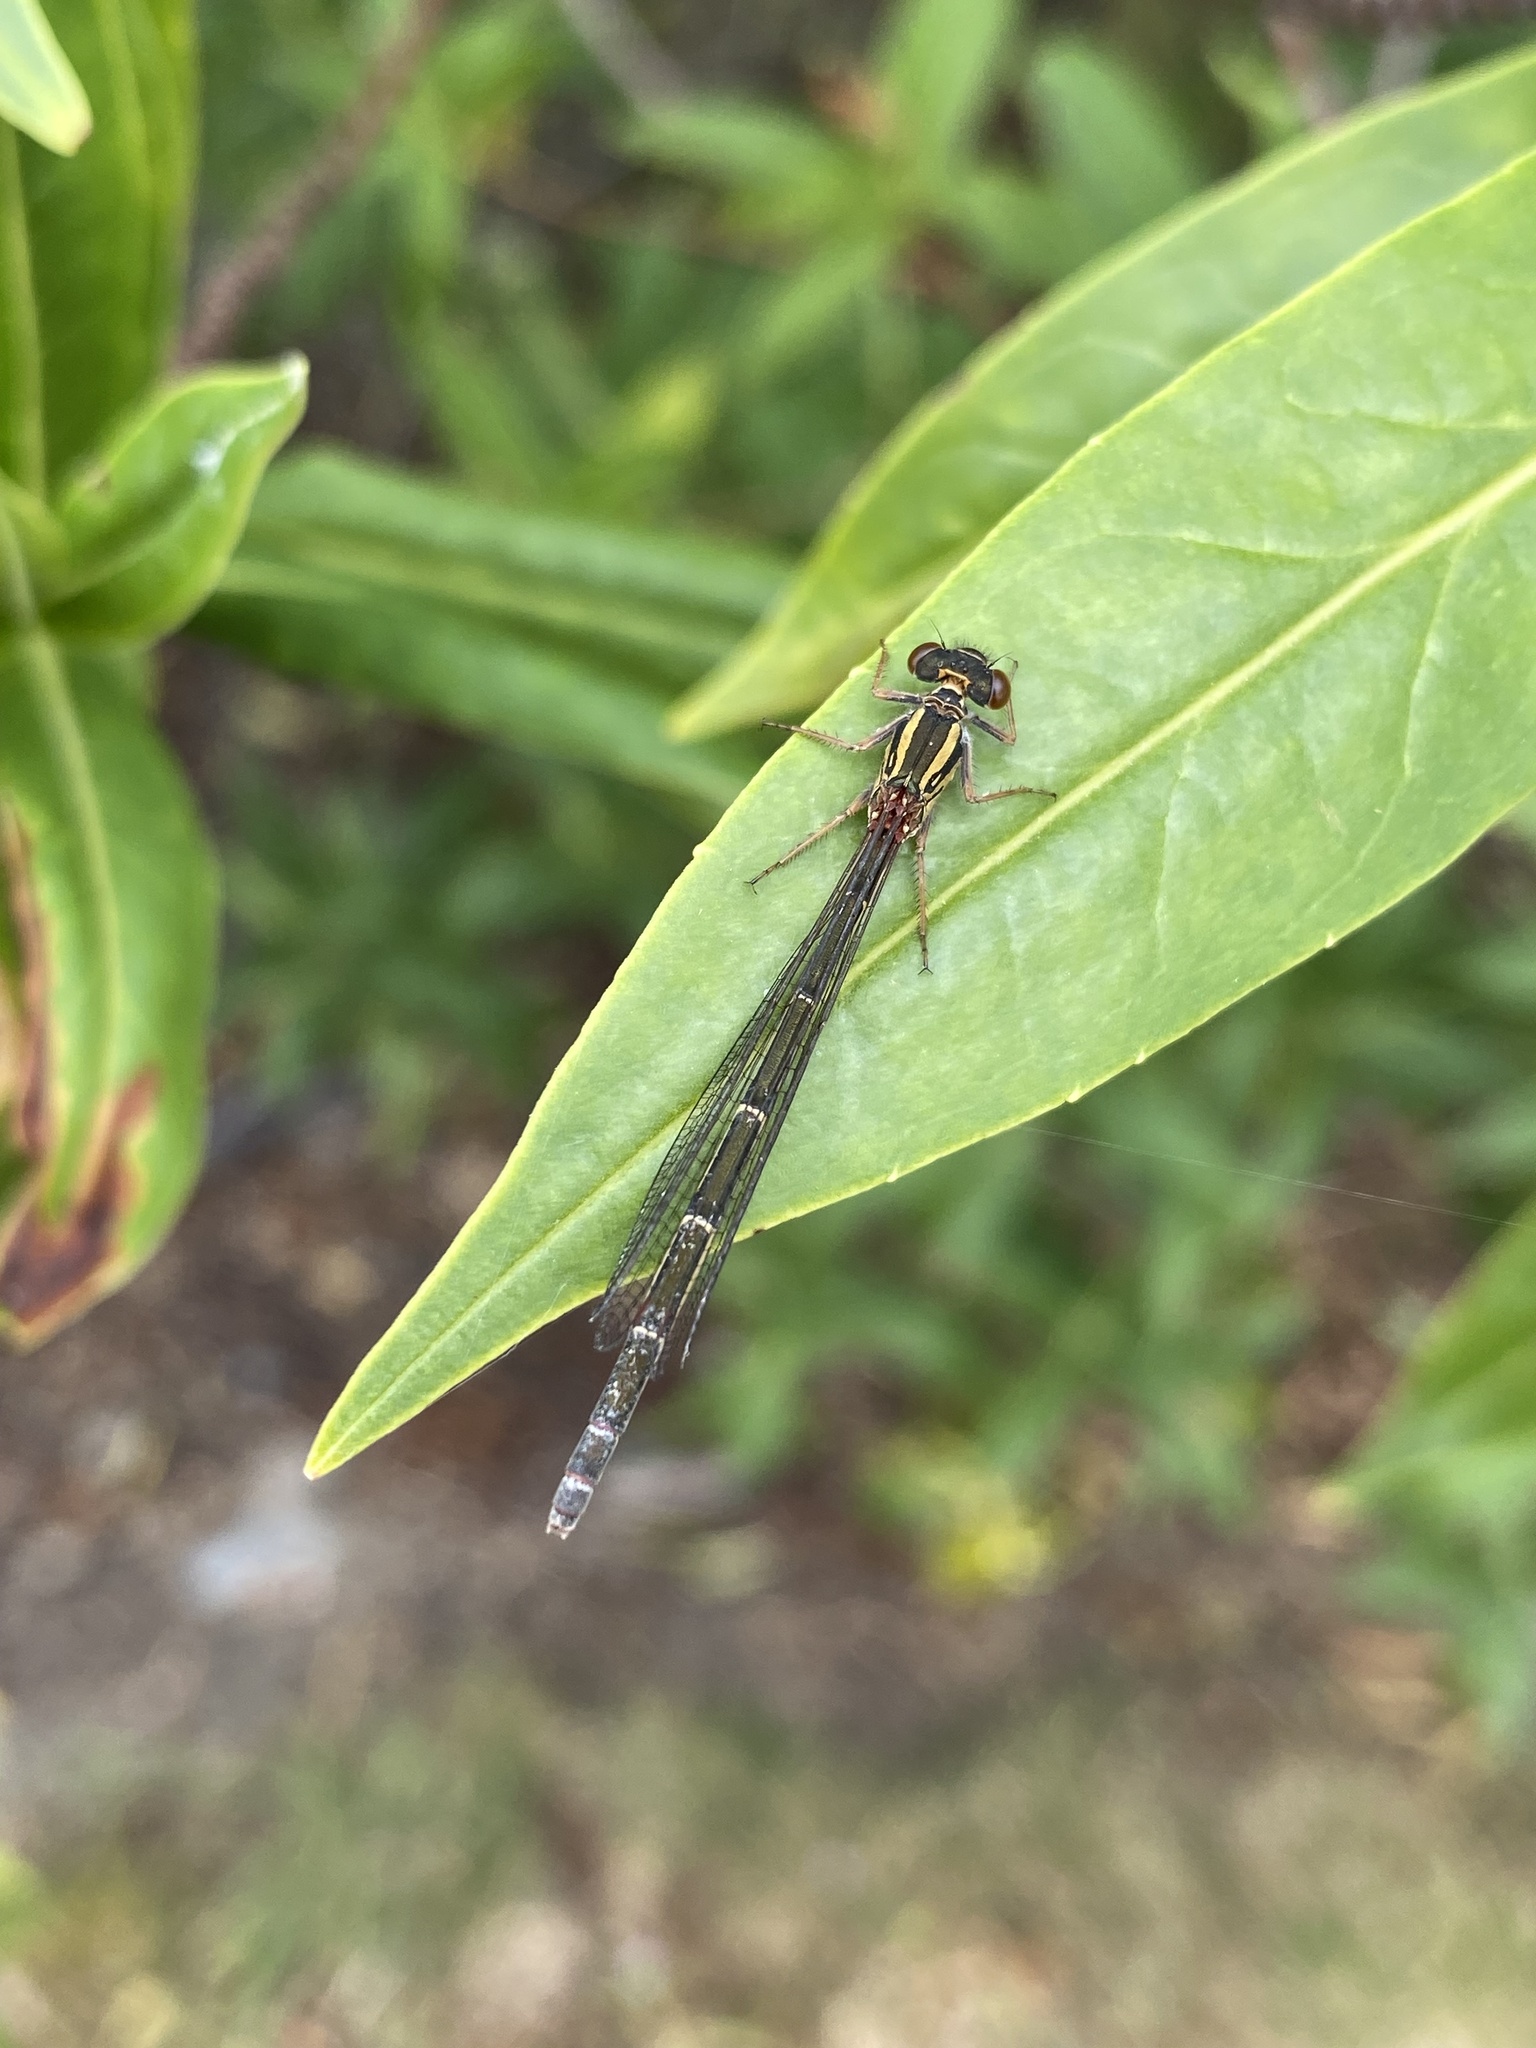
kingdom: Animalia
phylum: Arthropoda
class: Insecta
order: Odonata
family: Coenagrionidae
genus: Xanthocnemis
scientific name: Xanthocnemis zealandica
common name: Common redcoat damselfly
